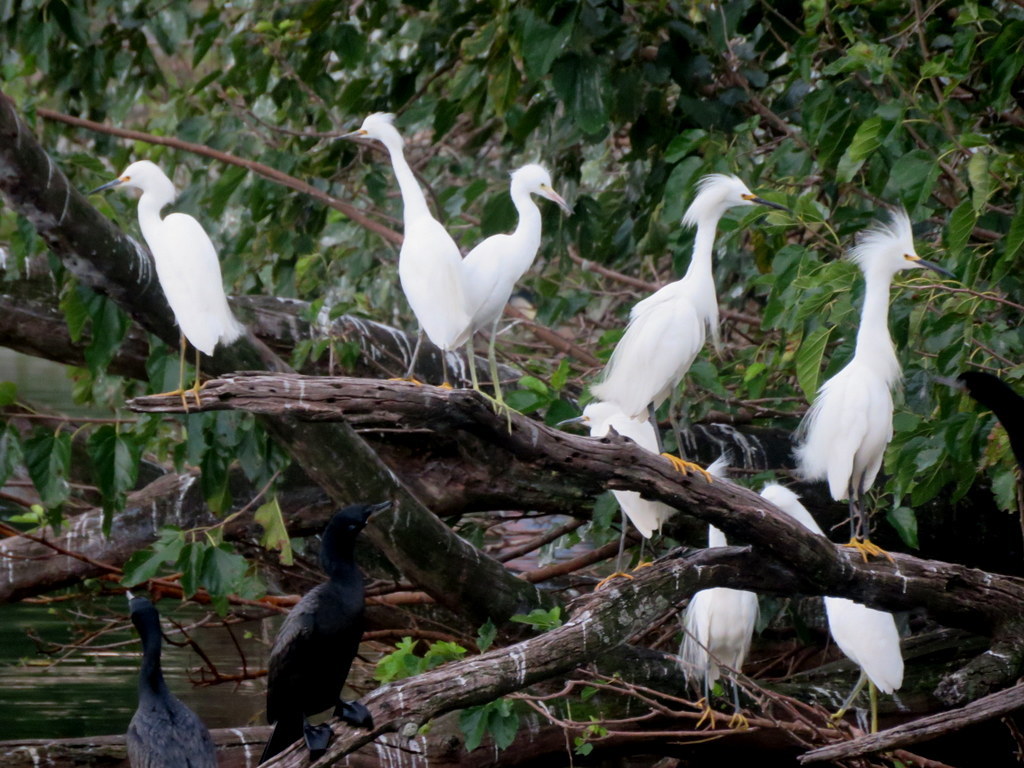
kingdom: Animalia
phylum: Chordata
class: Aves
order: Pelecaniformes
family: Ardeidae
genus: Egretta
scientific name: Egretta thula
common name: Snowy egret
